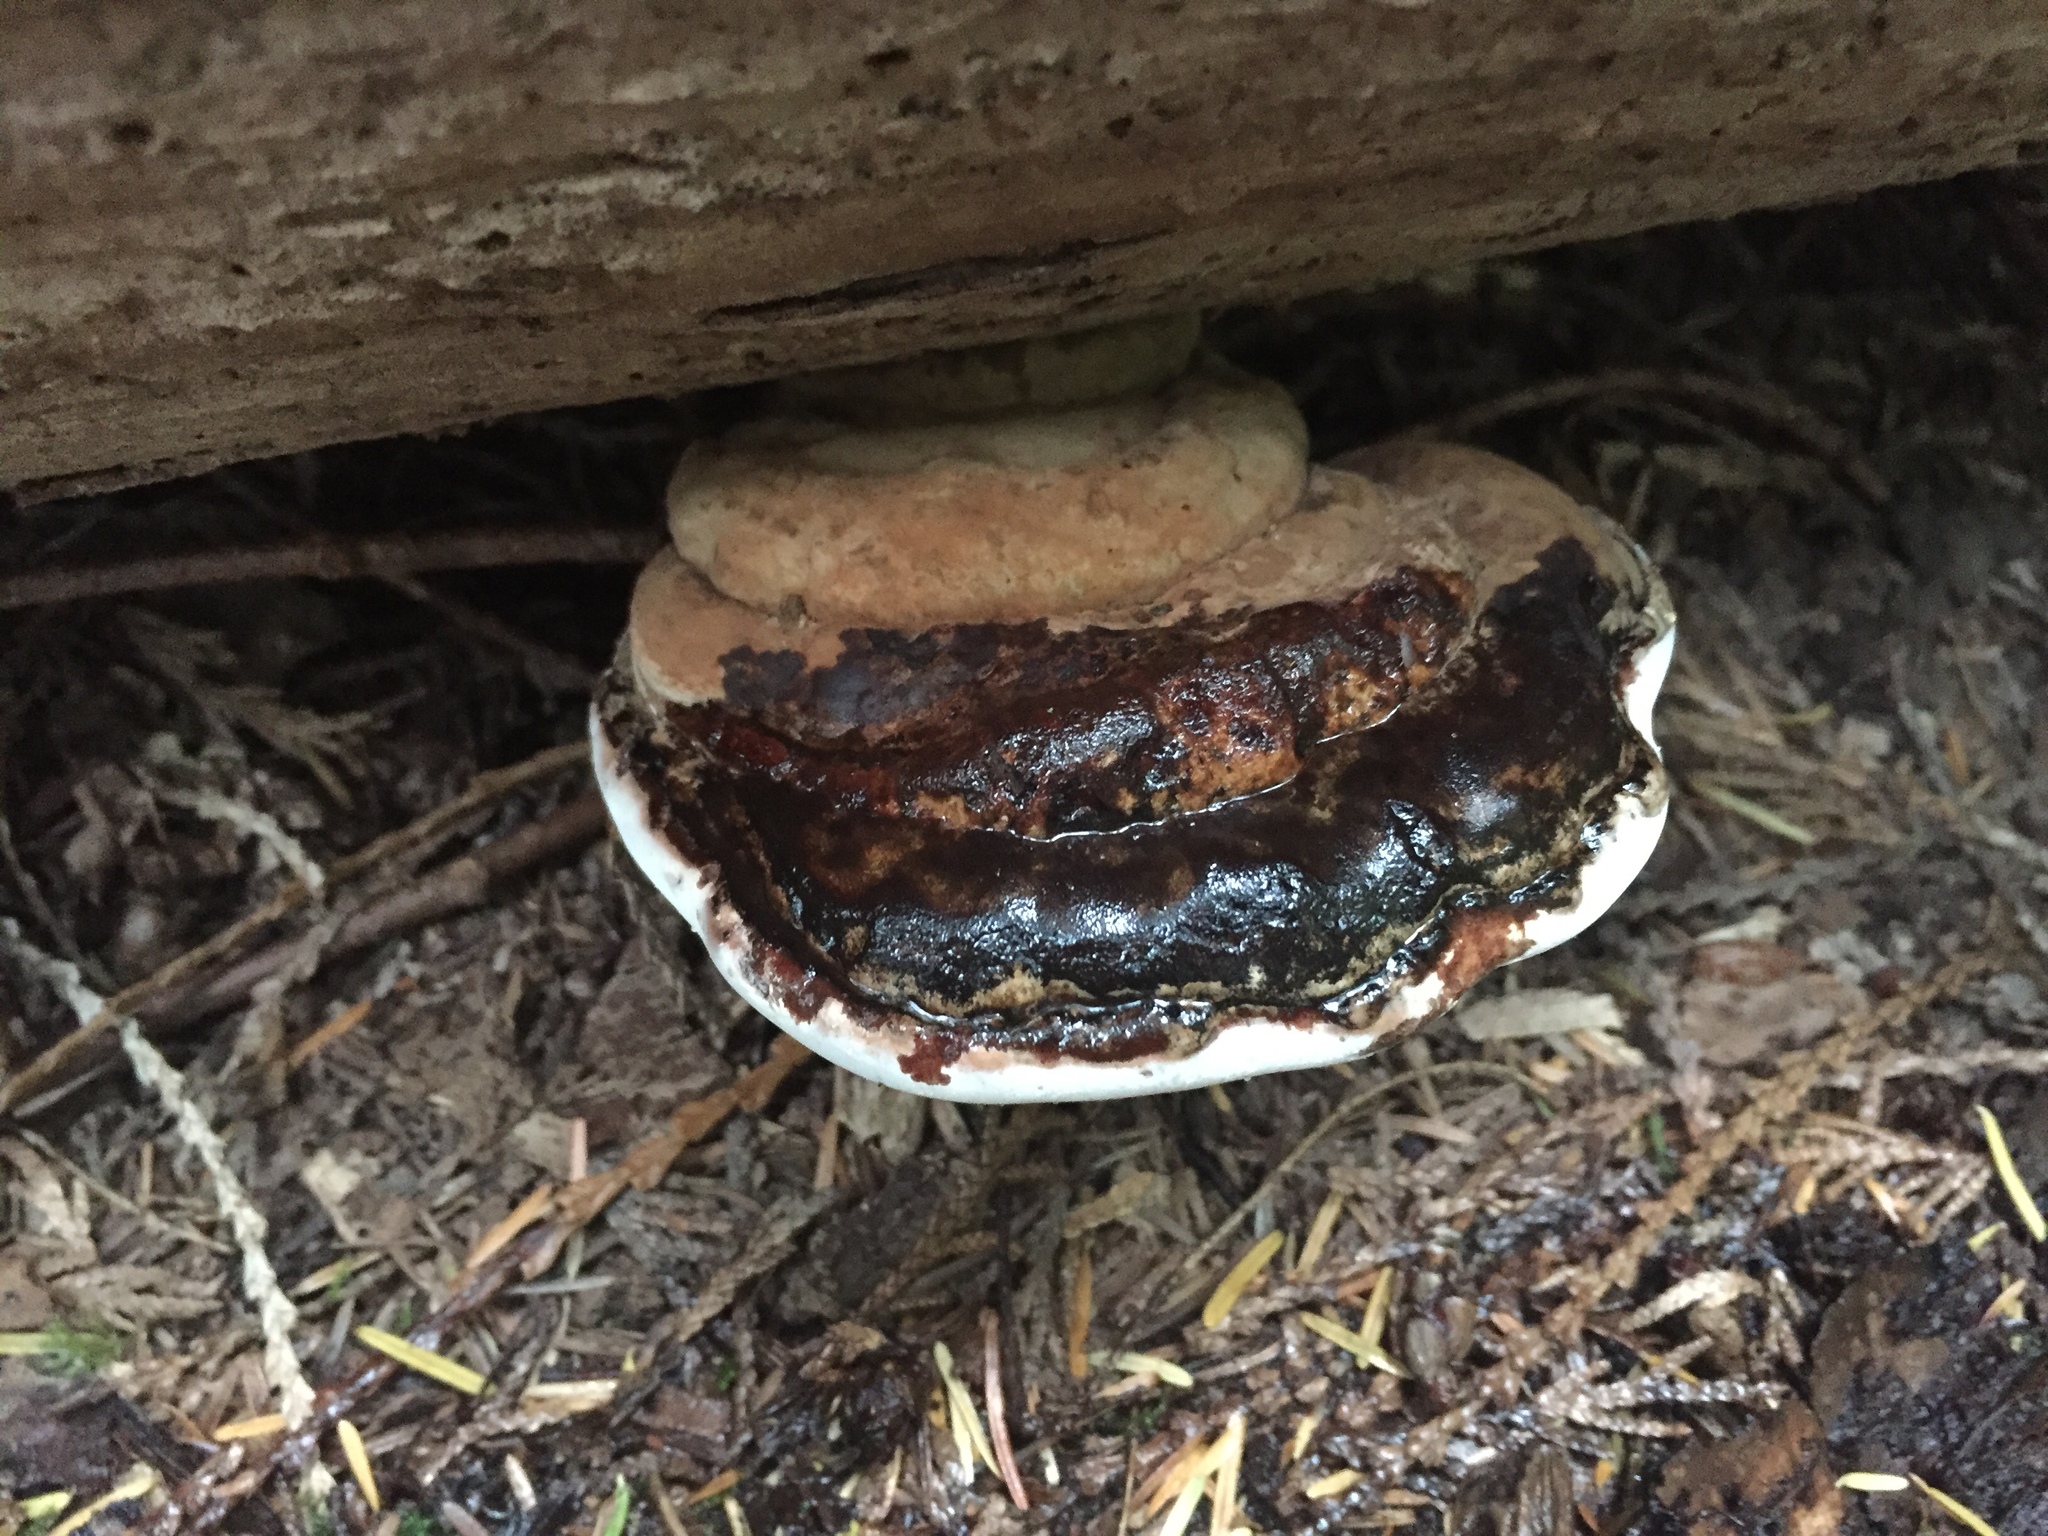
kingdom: Fungi
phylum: Basidiomycota
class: Agaricomycetes
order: Polyporales
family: Polyporaceae
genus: Ganoderma
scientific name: Ganoderma applanatum
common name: Artist's bracket
